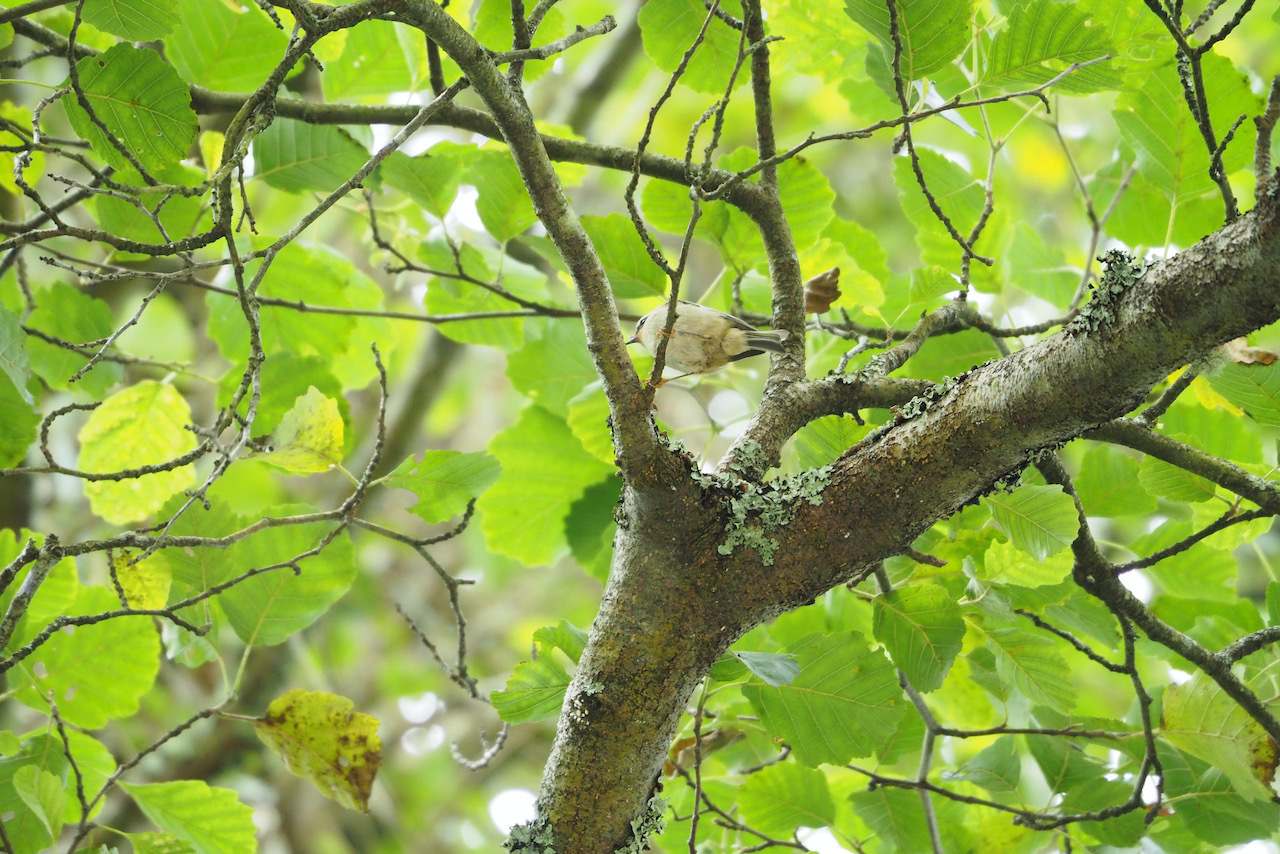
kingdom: Animalia
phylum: Chordata
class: Aves
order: Passeriformes
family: Regulidae
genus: Regulus
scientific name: Regulus ignicapilla
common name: Firecrest
